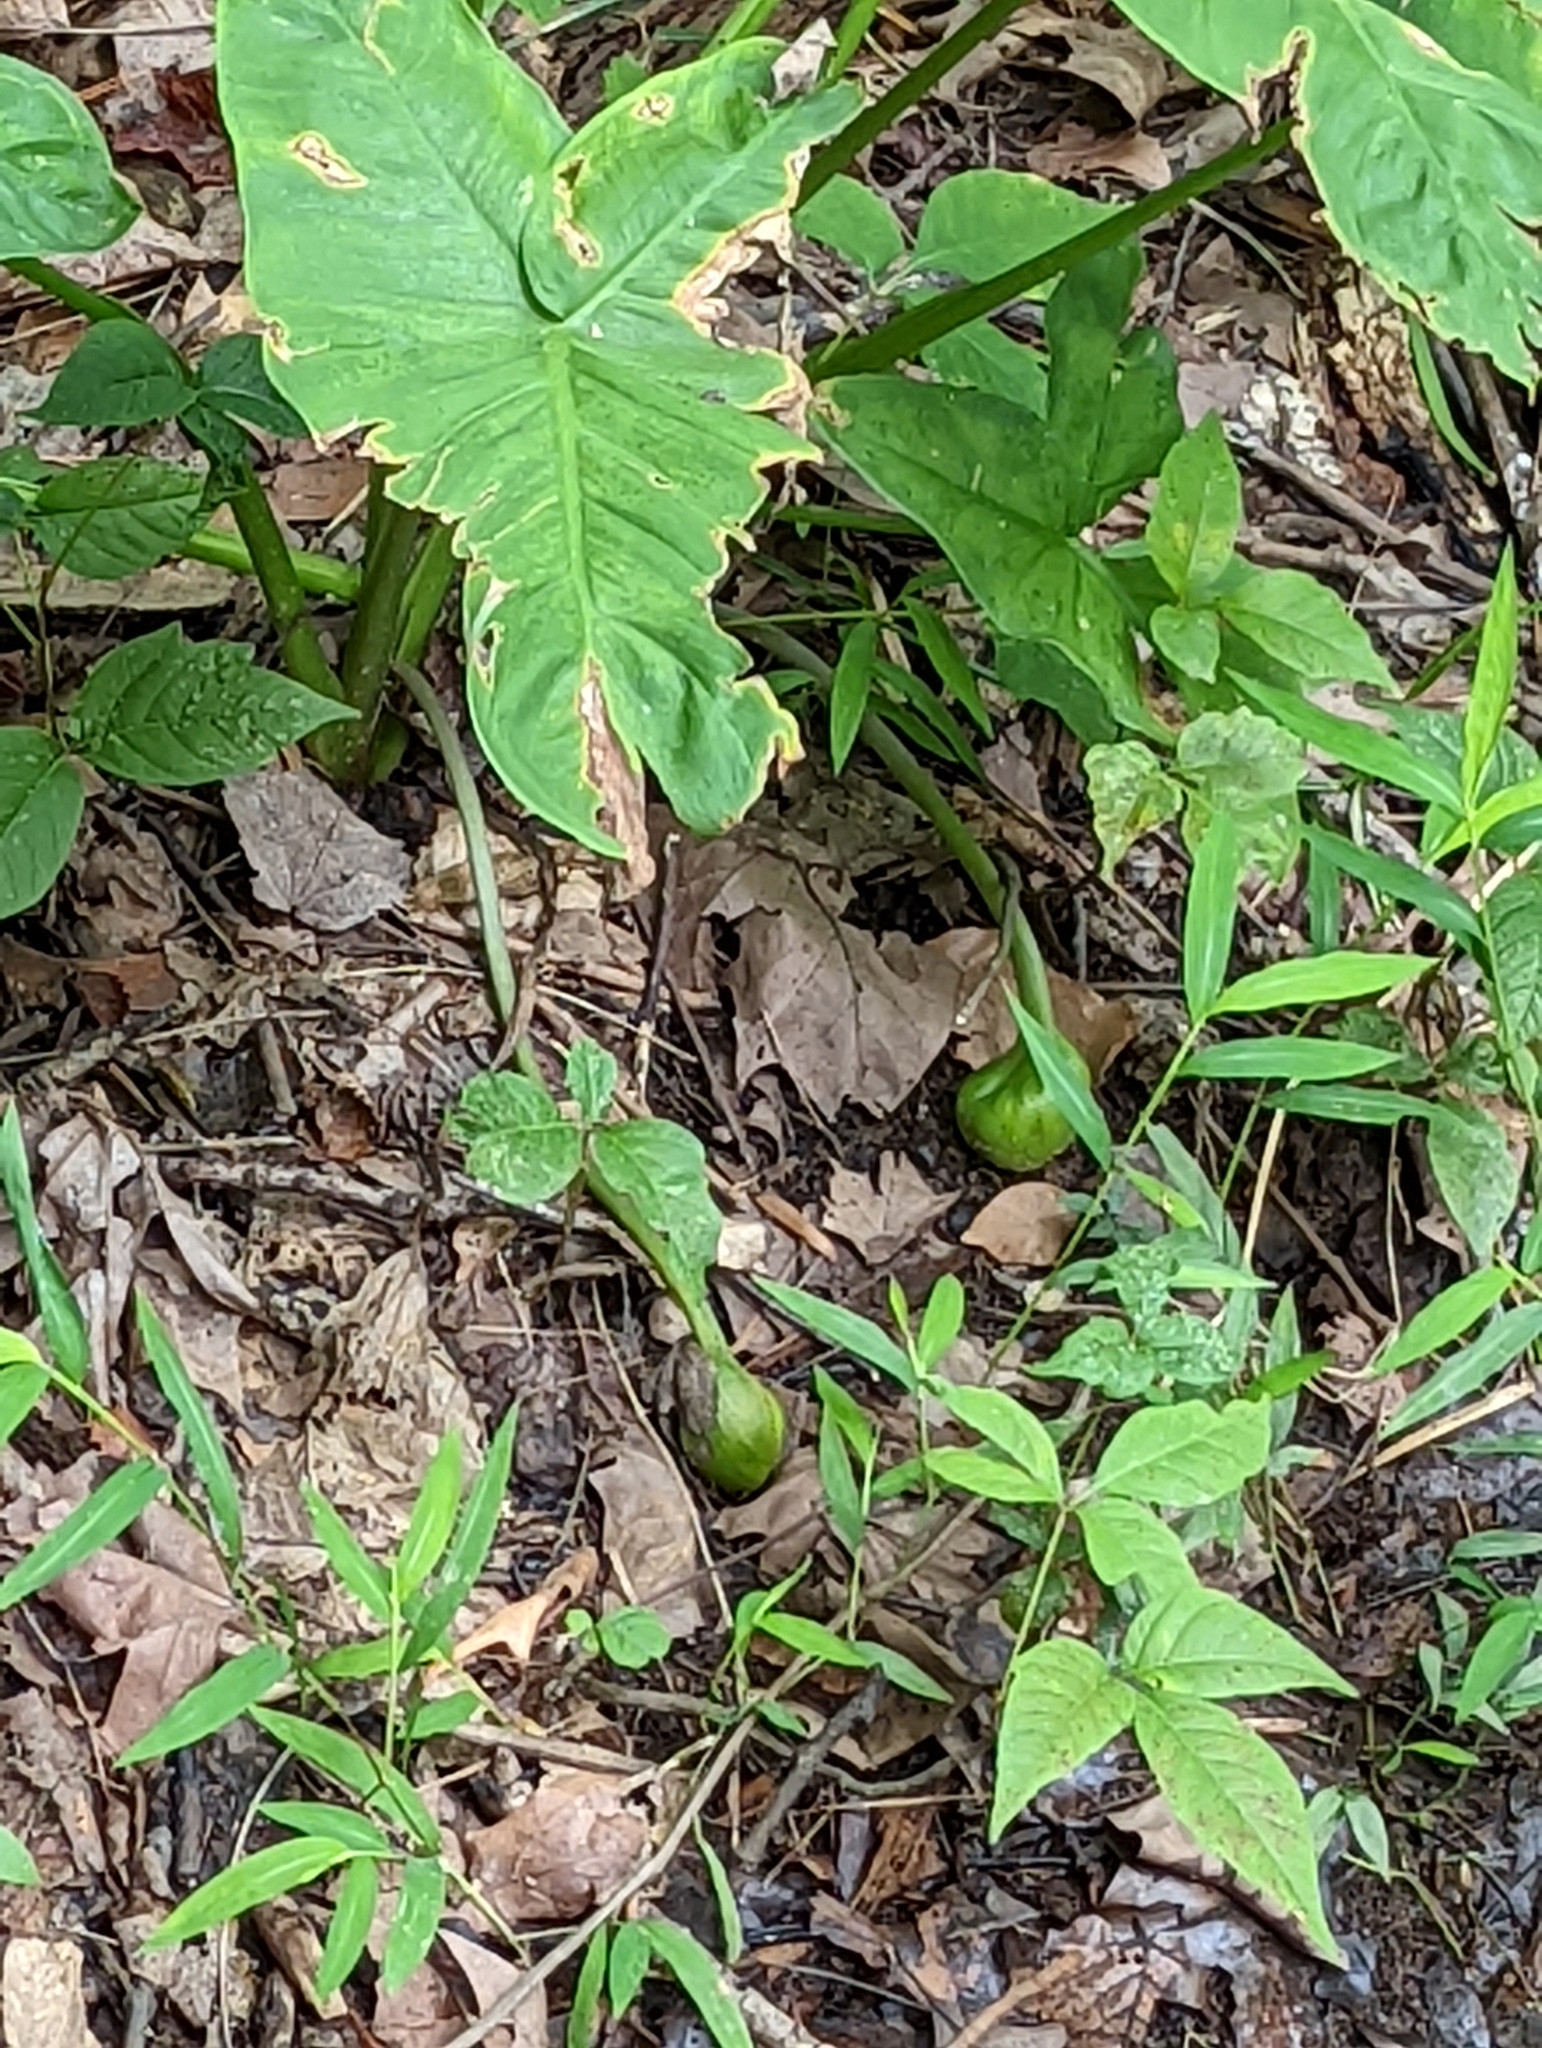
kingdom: Plantae
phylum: Tracheophyta
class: Liliopsida
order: Alismatales
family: Araceae
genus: Peltandra
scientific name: Peltandra virginica
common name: Arrow arum
